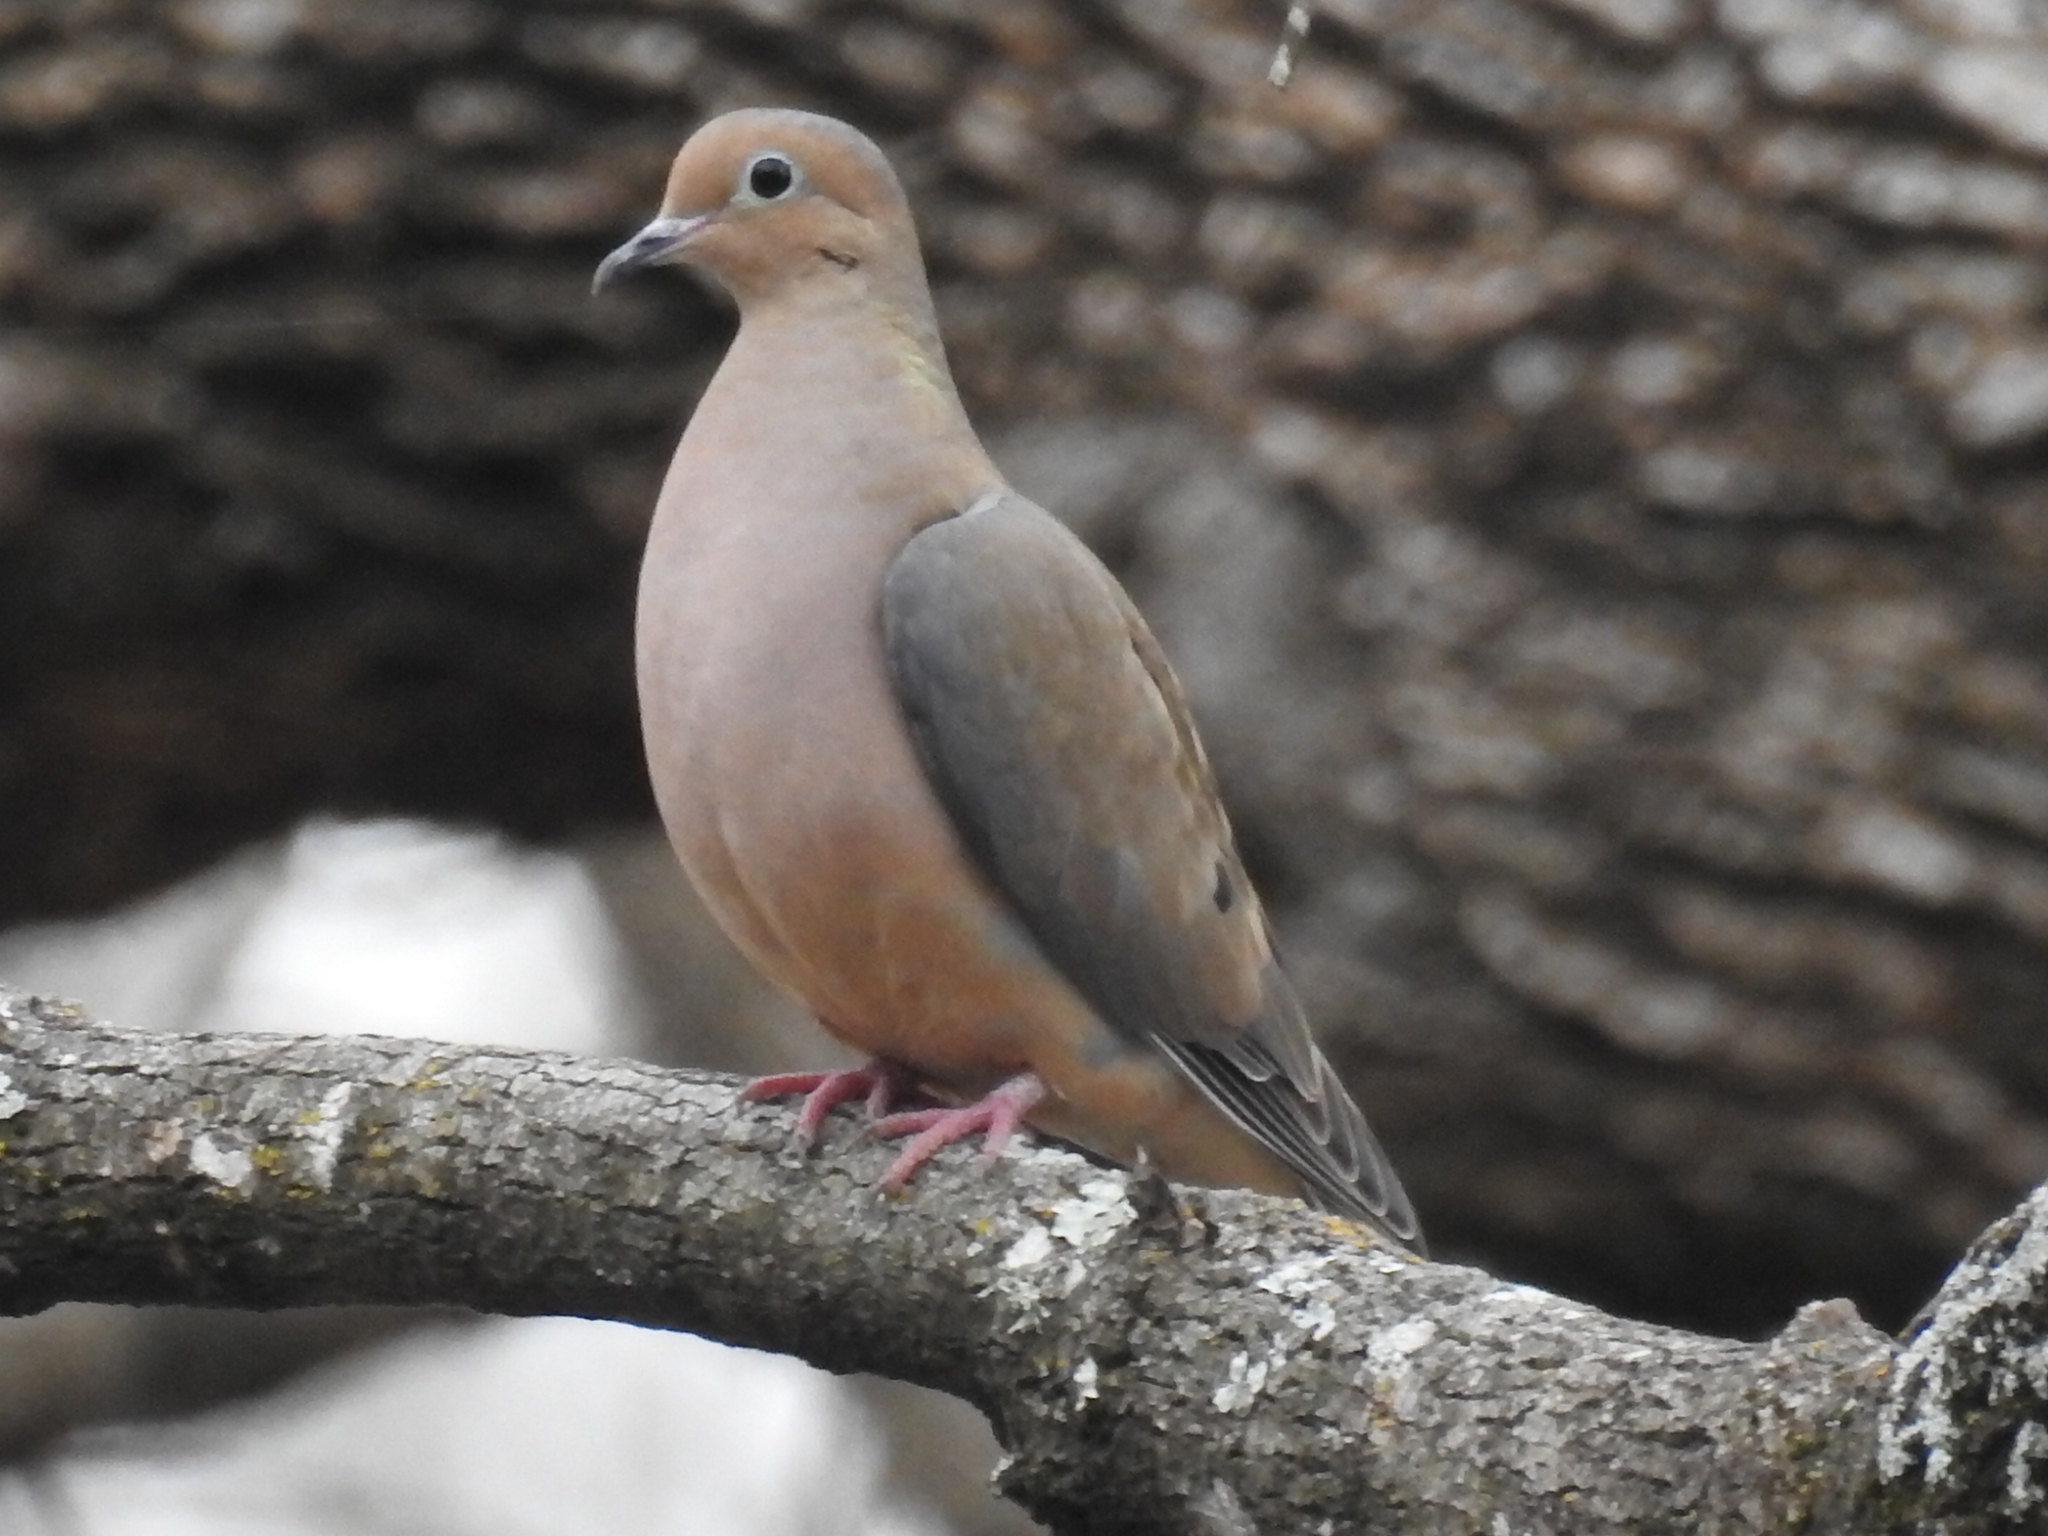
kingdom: Animalia
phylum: Chordata
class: Aves
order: Columbiformes
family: Columbidae
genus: Zenaida
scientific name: Zenaida macroura
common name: Mourning dove
